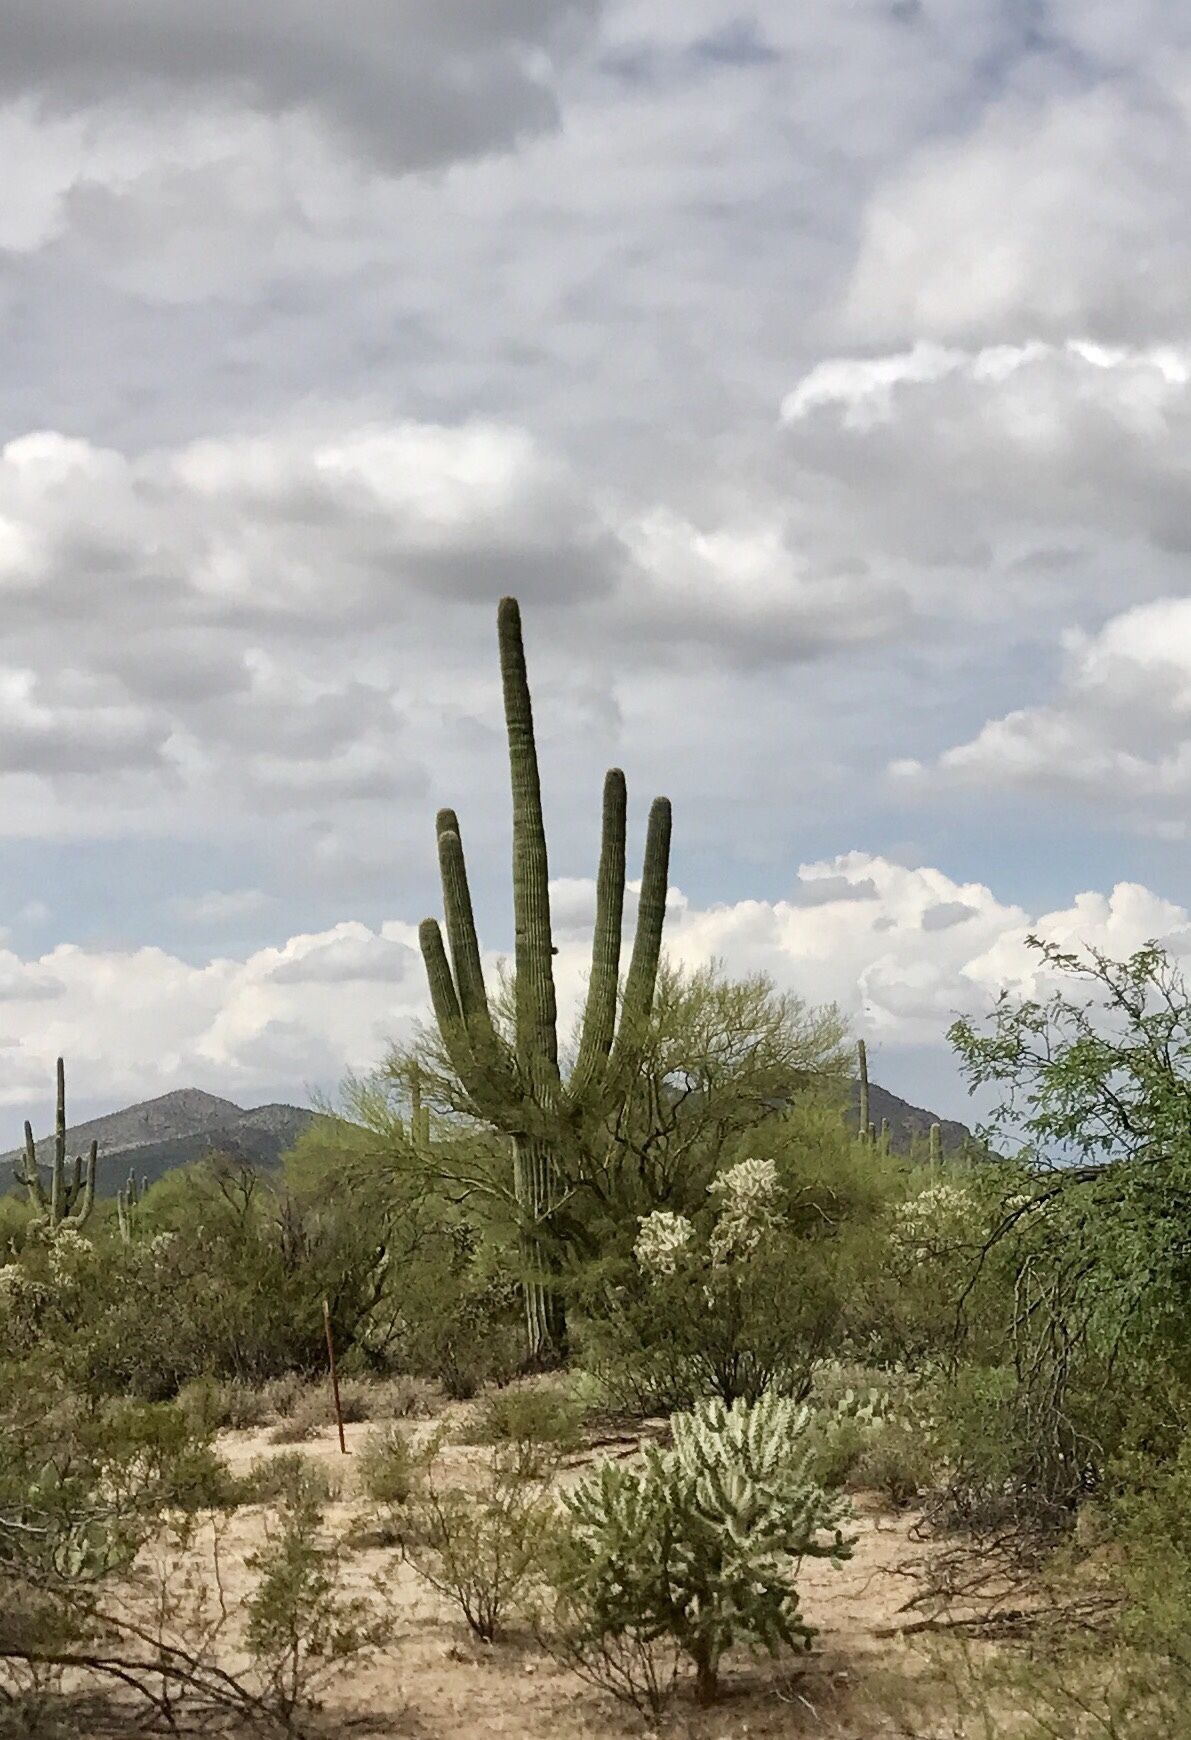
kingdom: Plantae
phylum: Tracheophyta
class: Magnoliopsida
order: Caryophyllales
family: Cactaceae
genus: Carnegiea
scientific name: Carnegiea gigantea
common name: Saguaro
